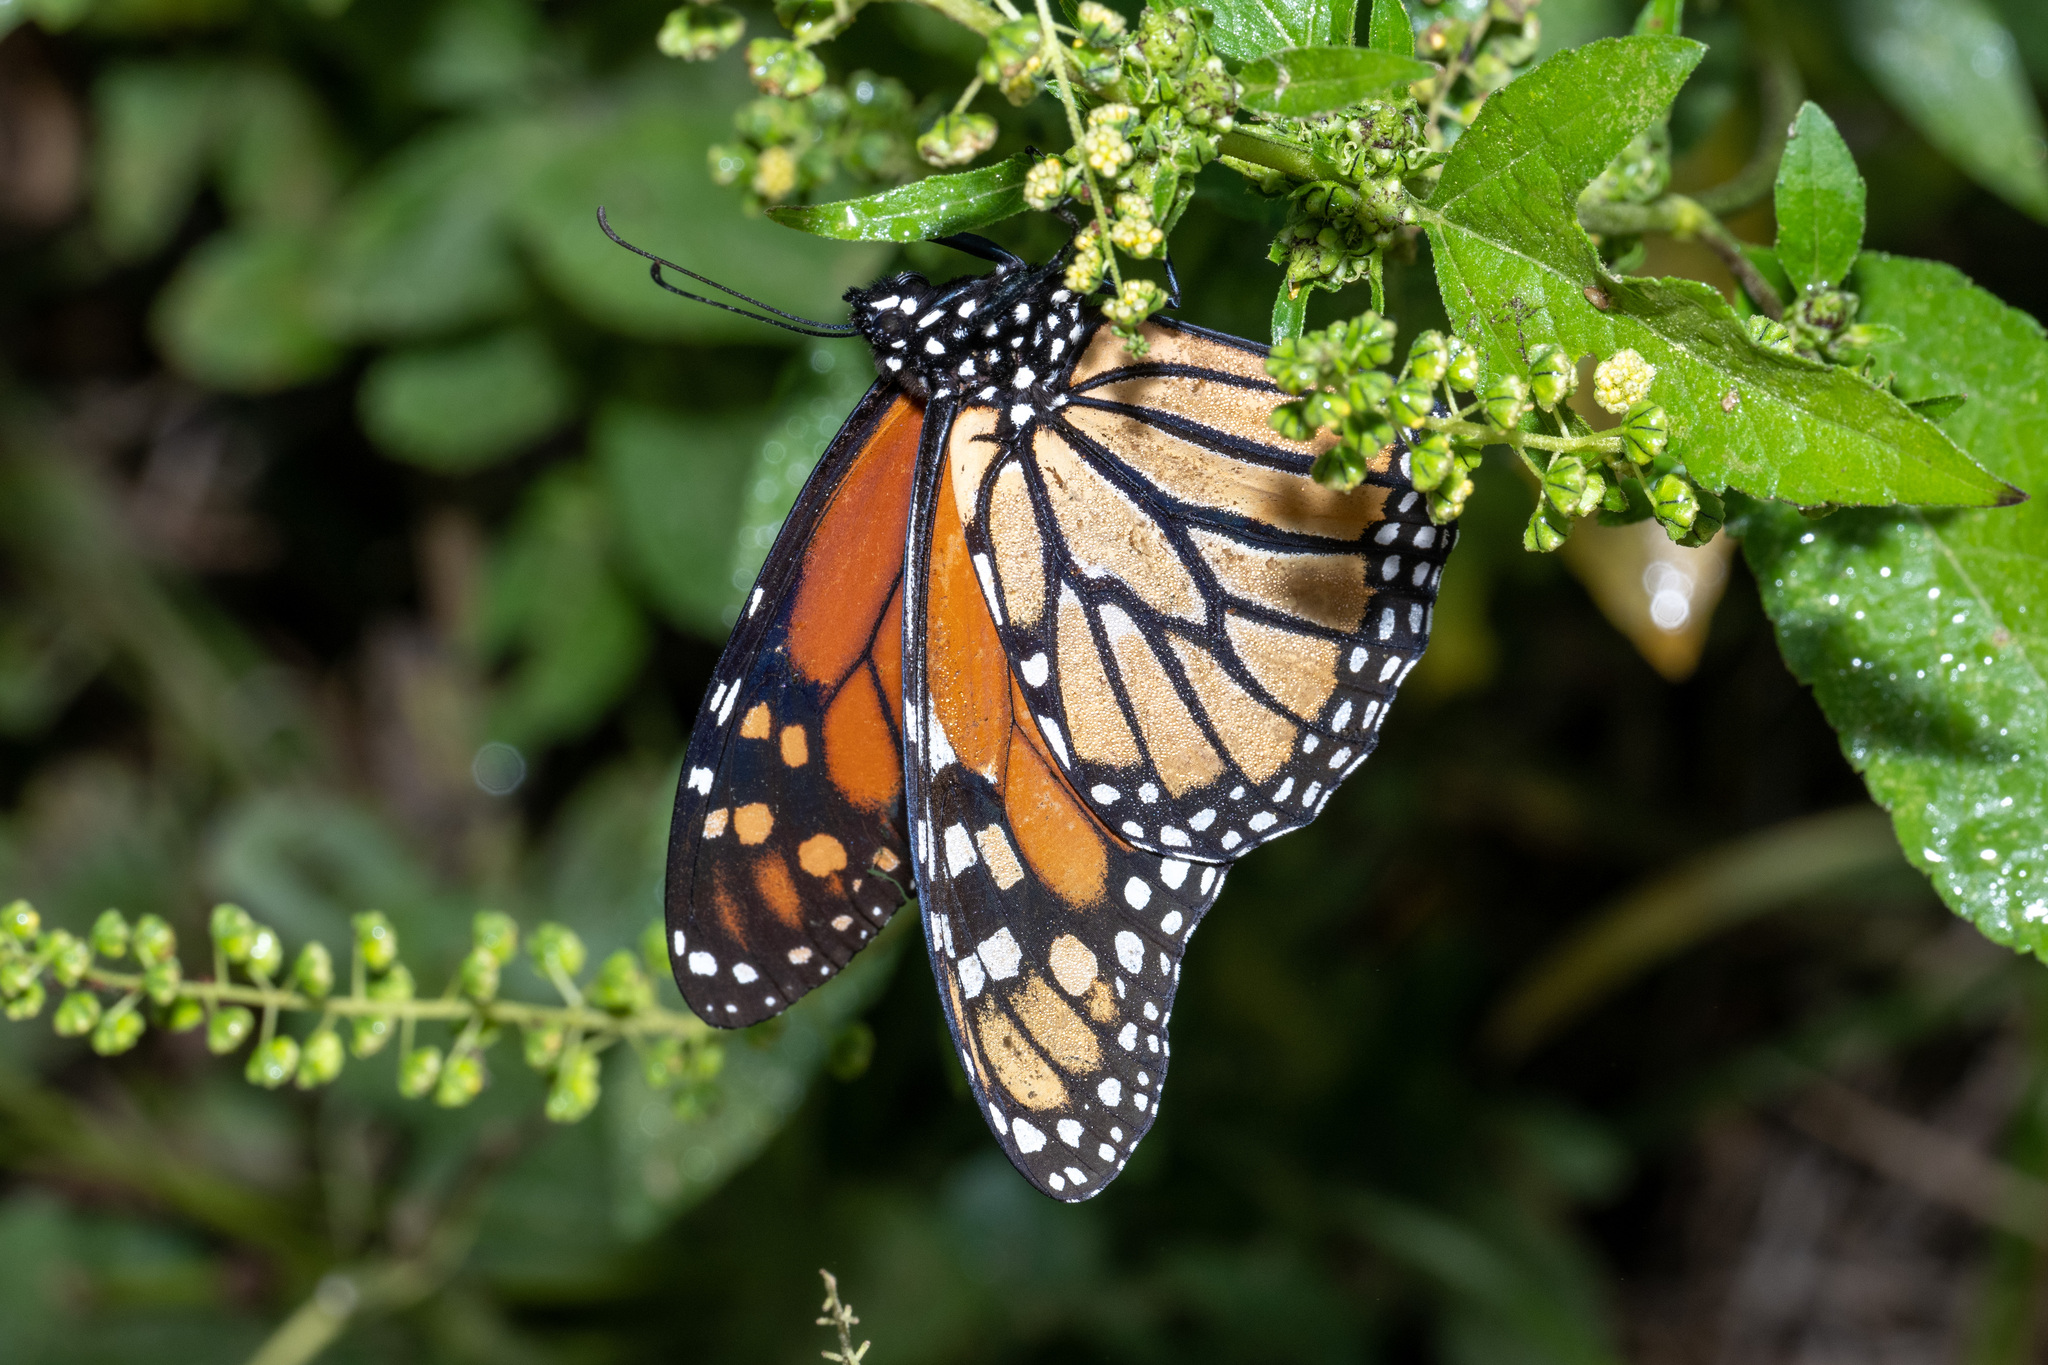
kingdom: Animalia
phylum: Arthropoda
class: Insecta
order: Lepidoptera
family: Nymphalidae
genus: Danaus
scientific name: Danaus plexippus
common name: Monarch
